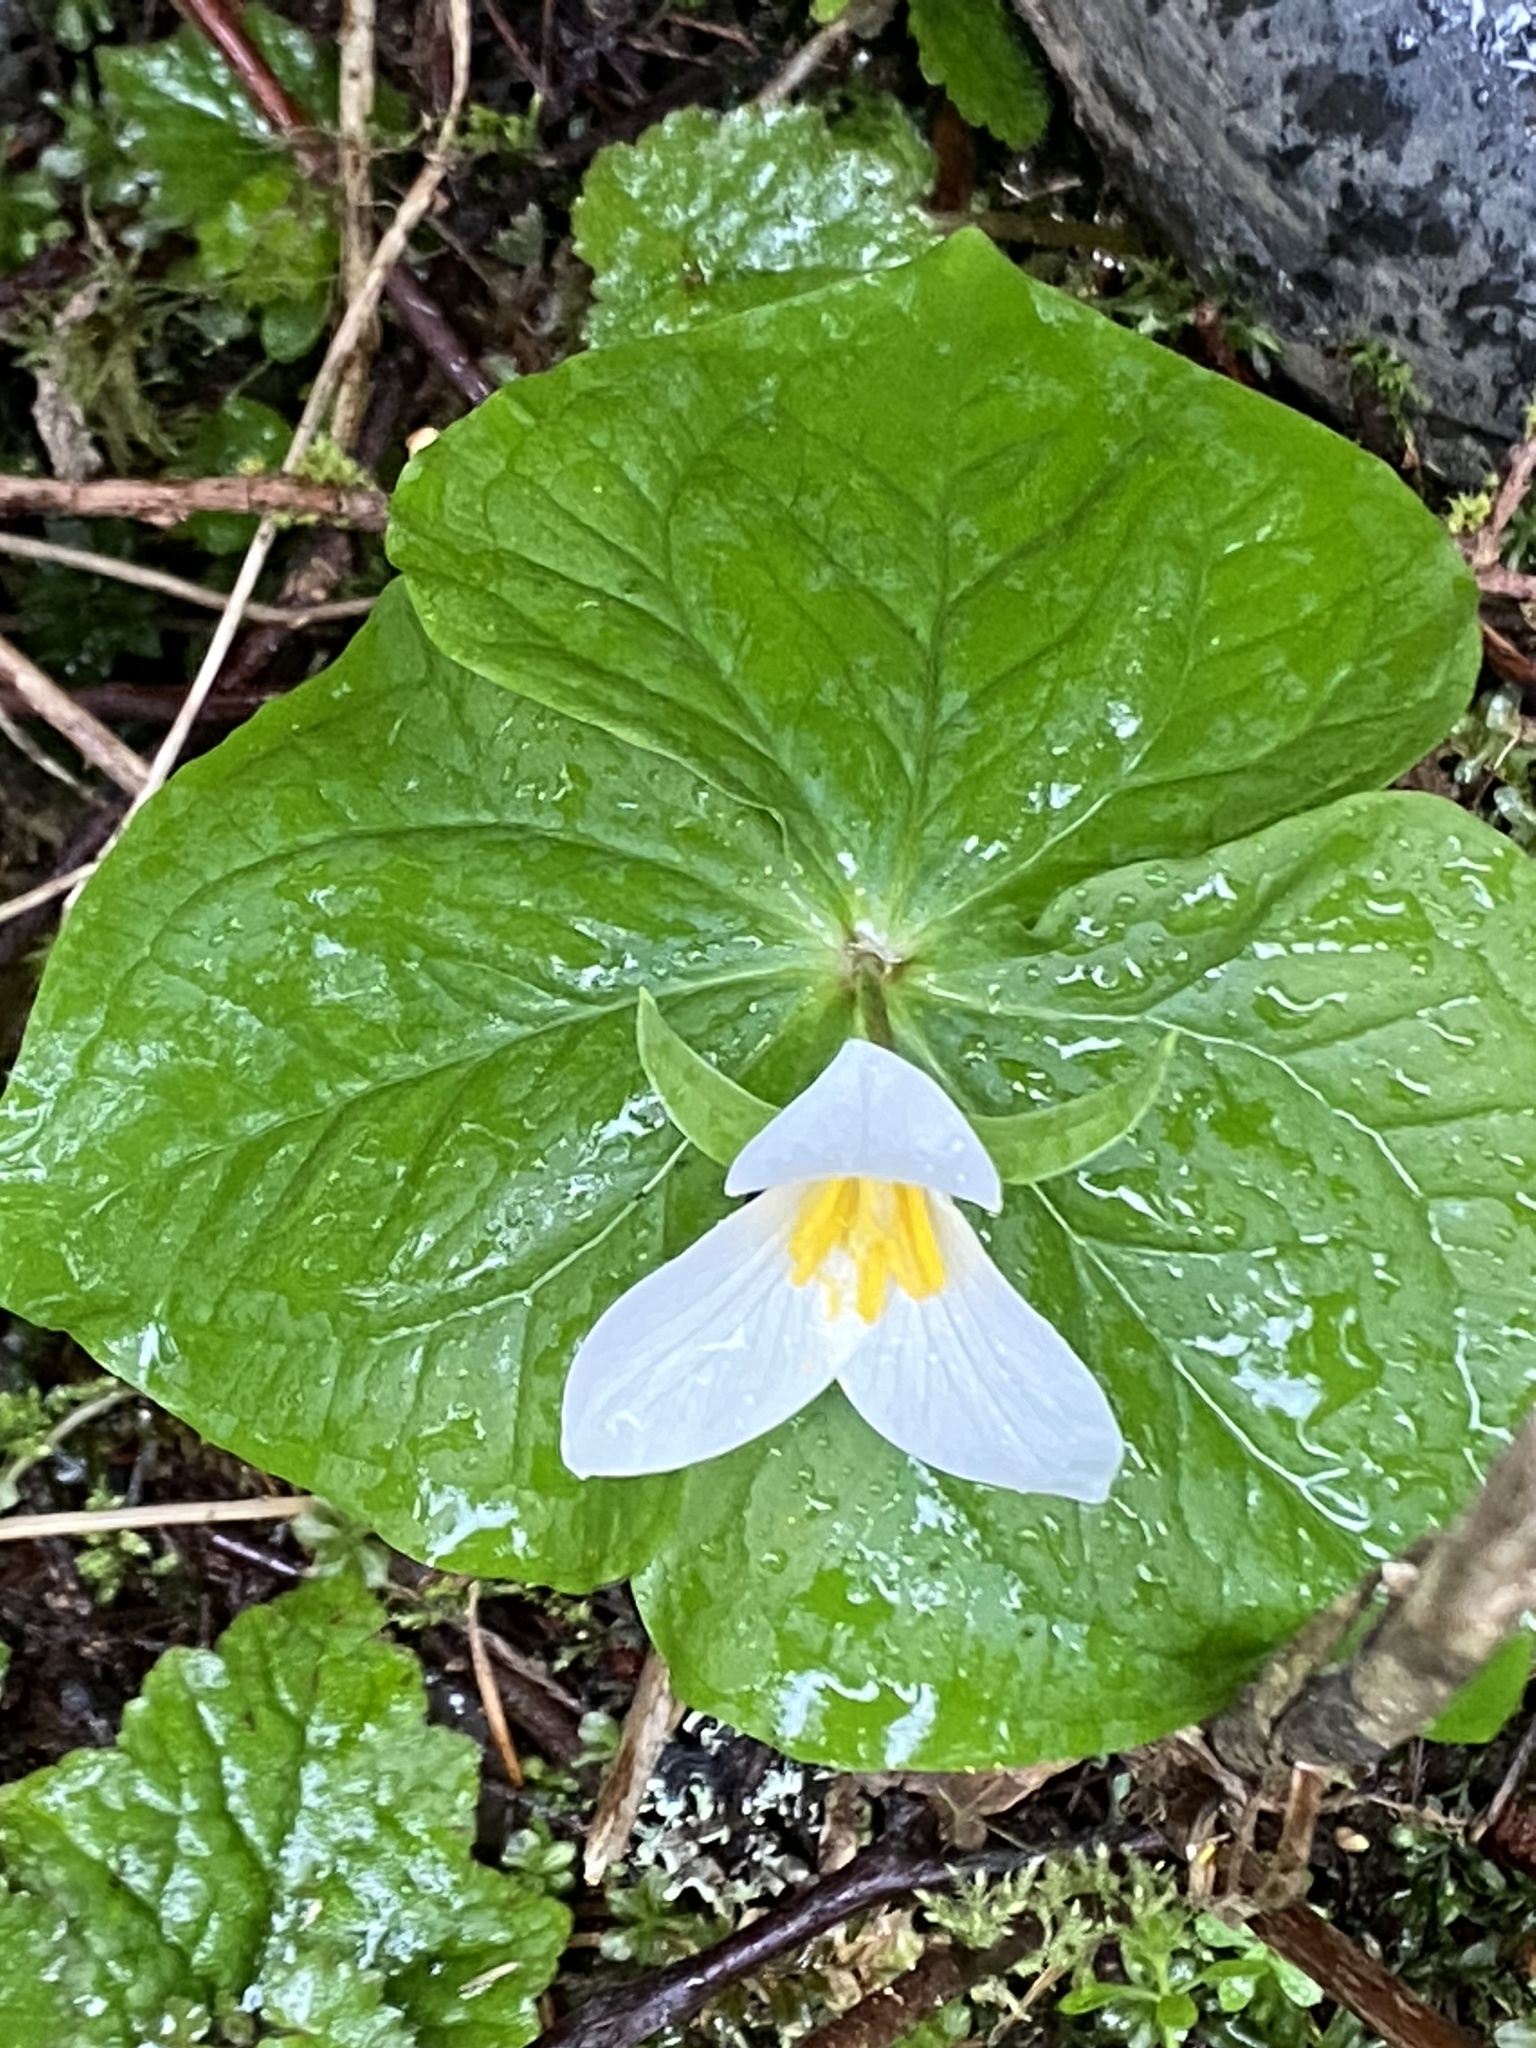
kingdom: Plantae
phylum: Tracheophyta
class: Liliopsida
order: Liliales
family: Melanthiaceae
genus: Trillium
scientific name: Trillium ovatum
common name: Pacific trillium
